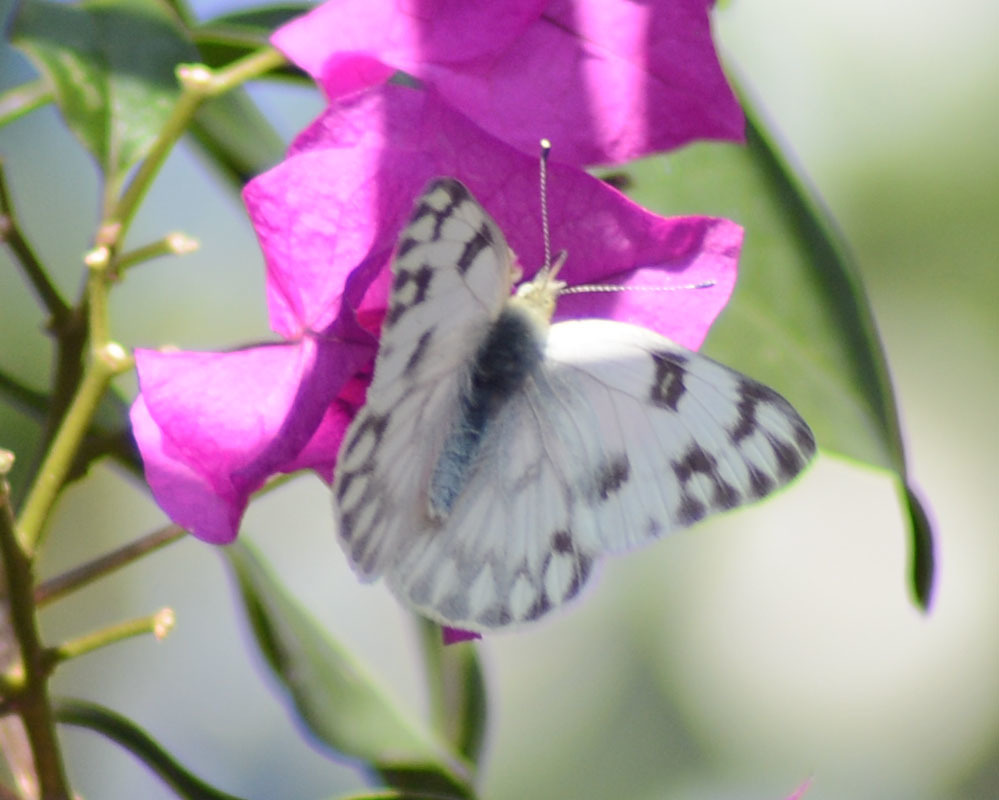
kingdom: Animalia
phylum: Arthropoda
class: Insecta
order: Lepidoptera
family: Pieridae
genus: Pontia
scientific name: Pontia protodice
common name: Checkered white
